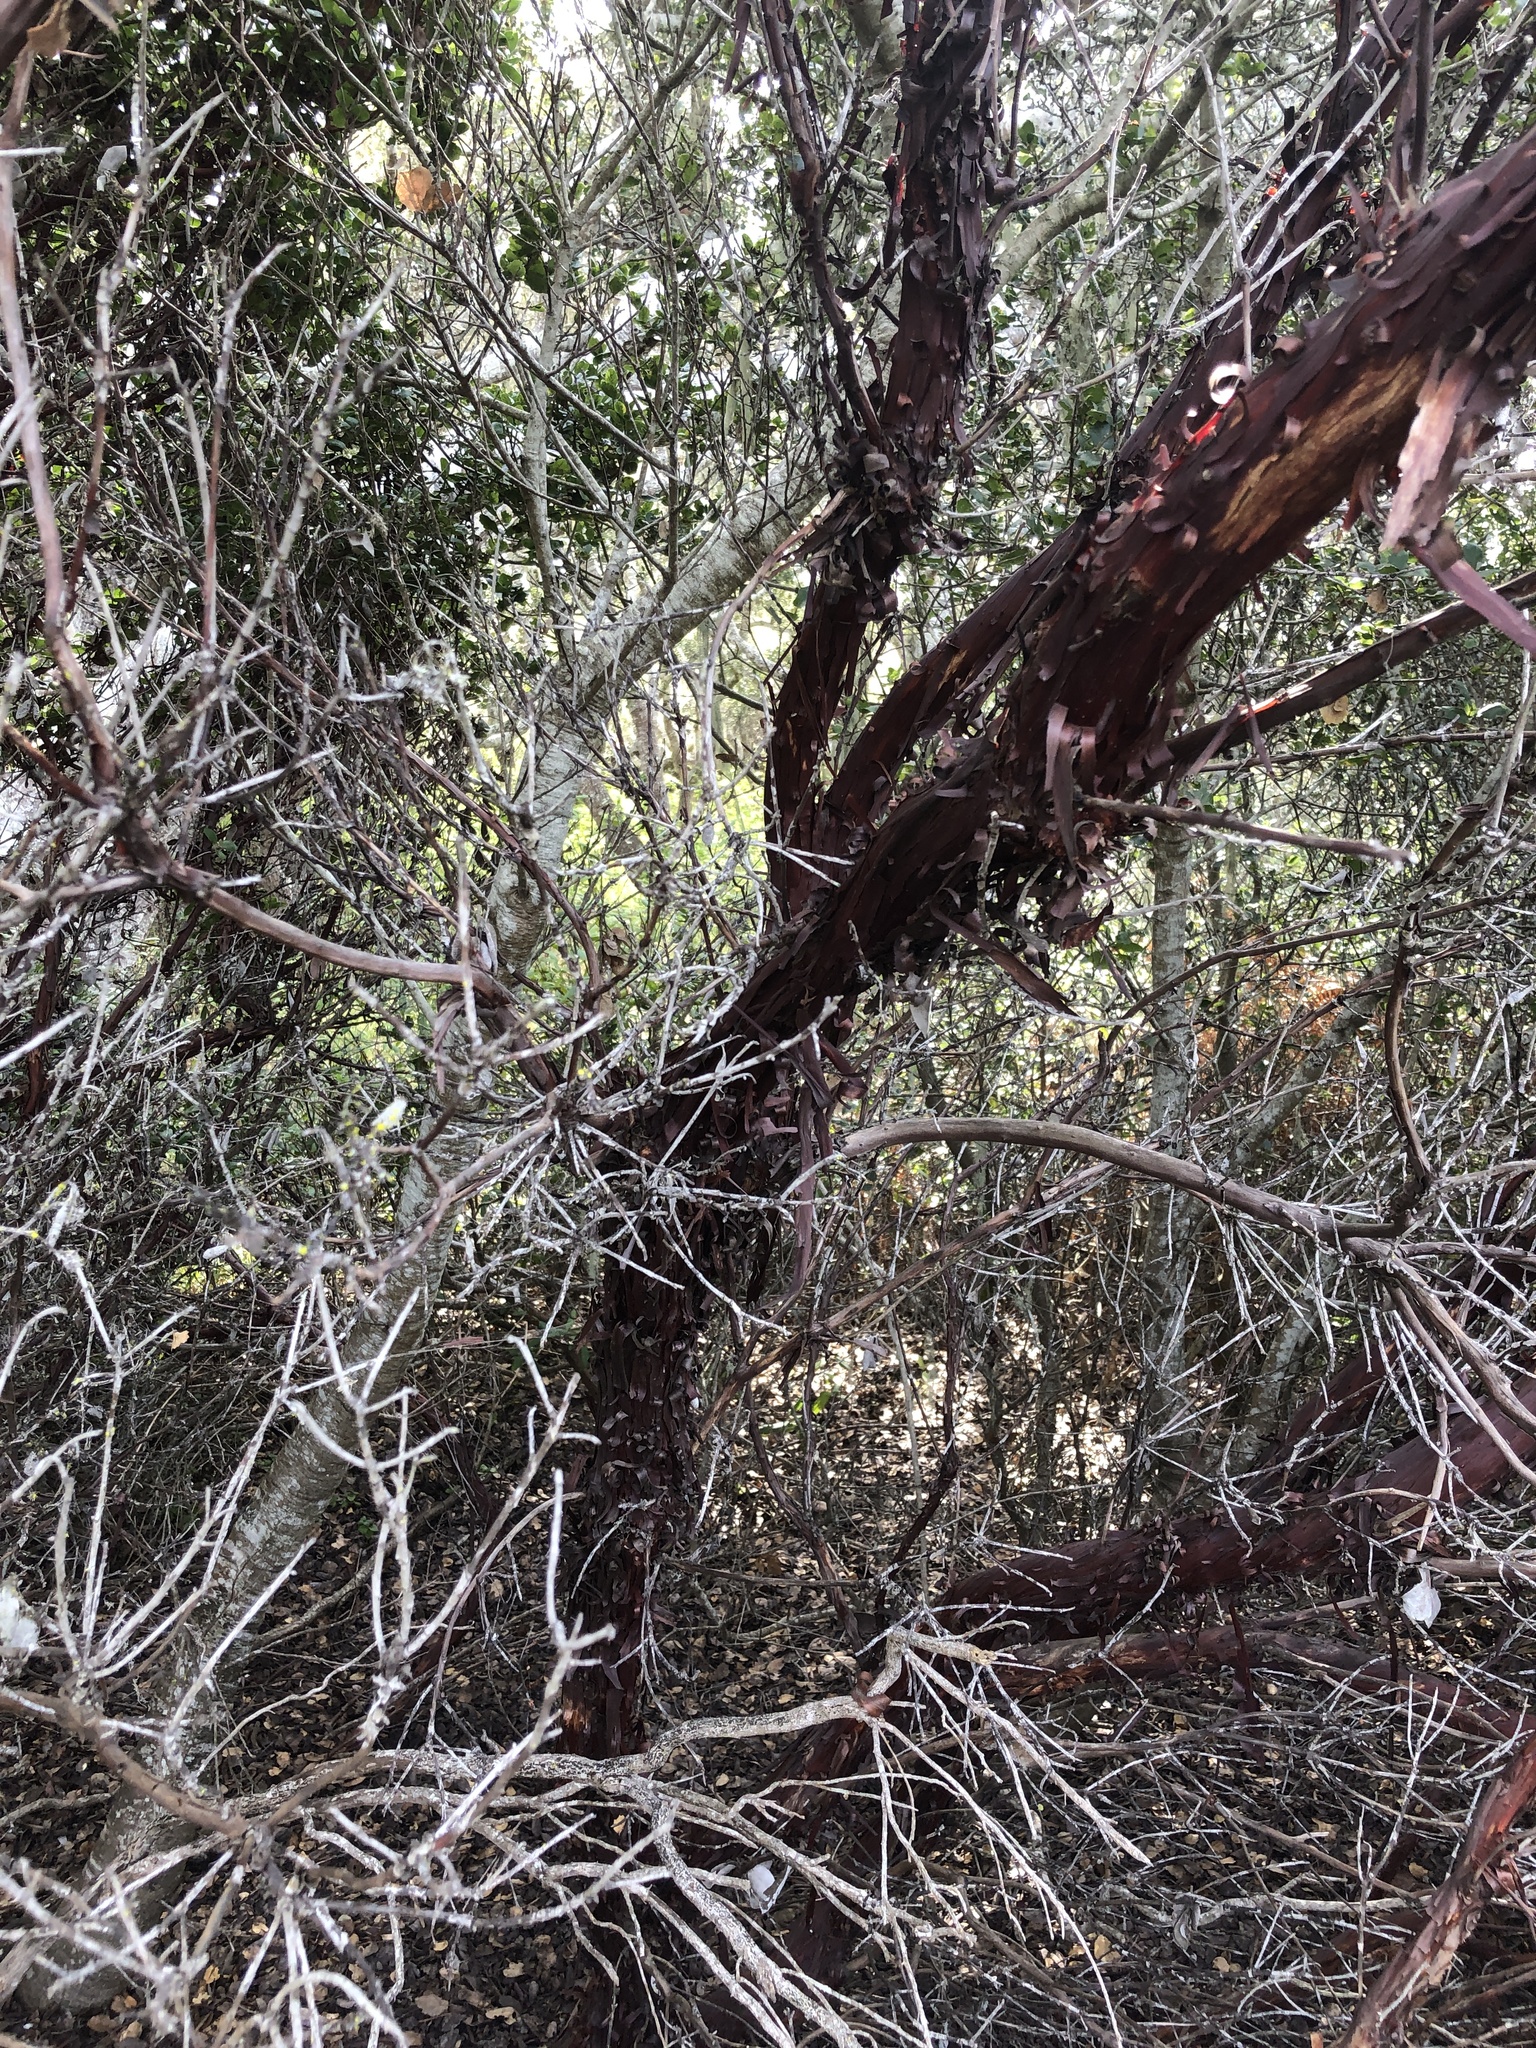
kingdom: Plantae
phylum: Tracheophyta
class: Magnoliopsida
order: Ericales
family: Ericaceae
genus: Arctostaphylos
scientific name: Arctostaphylos tomentosa
